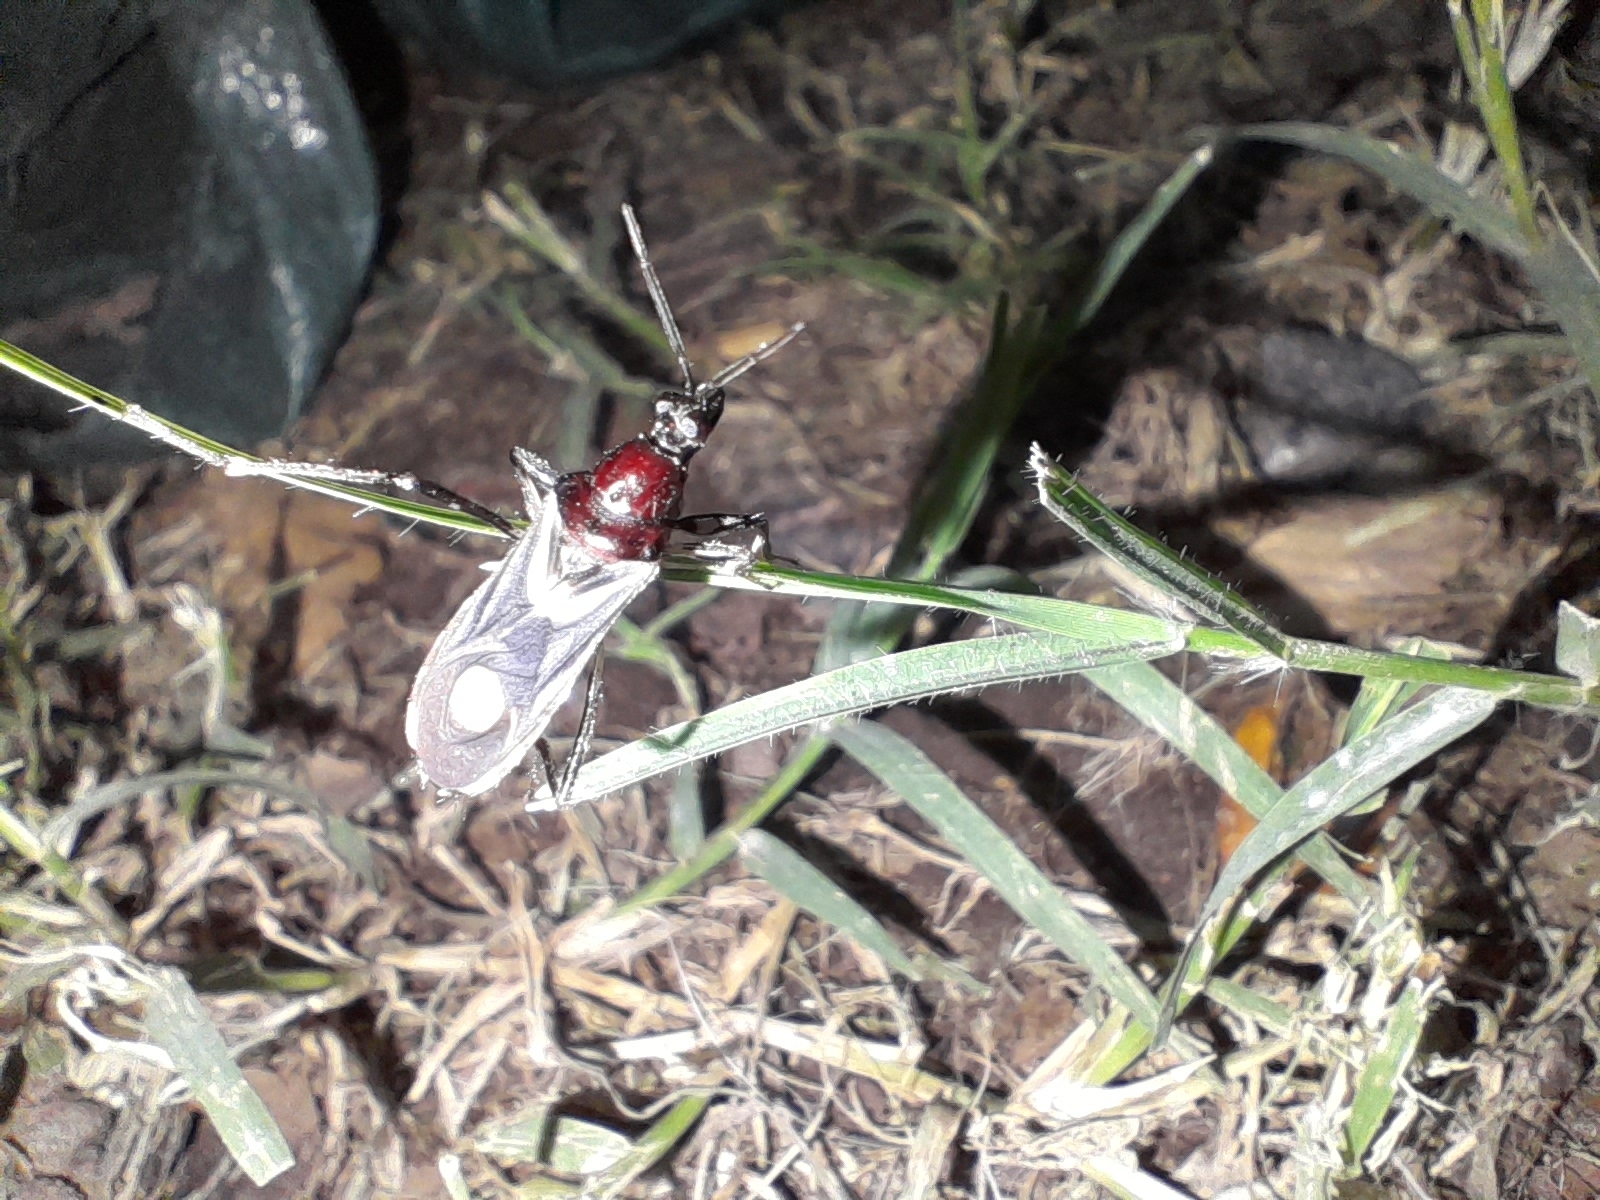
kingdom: Animalia
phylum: Arthropoda
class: Insecta
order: Hemiptera
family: Reduviidae
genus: Rasahus
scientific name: Rasahus hamatus
